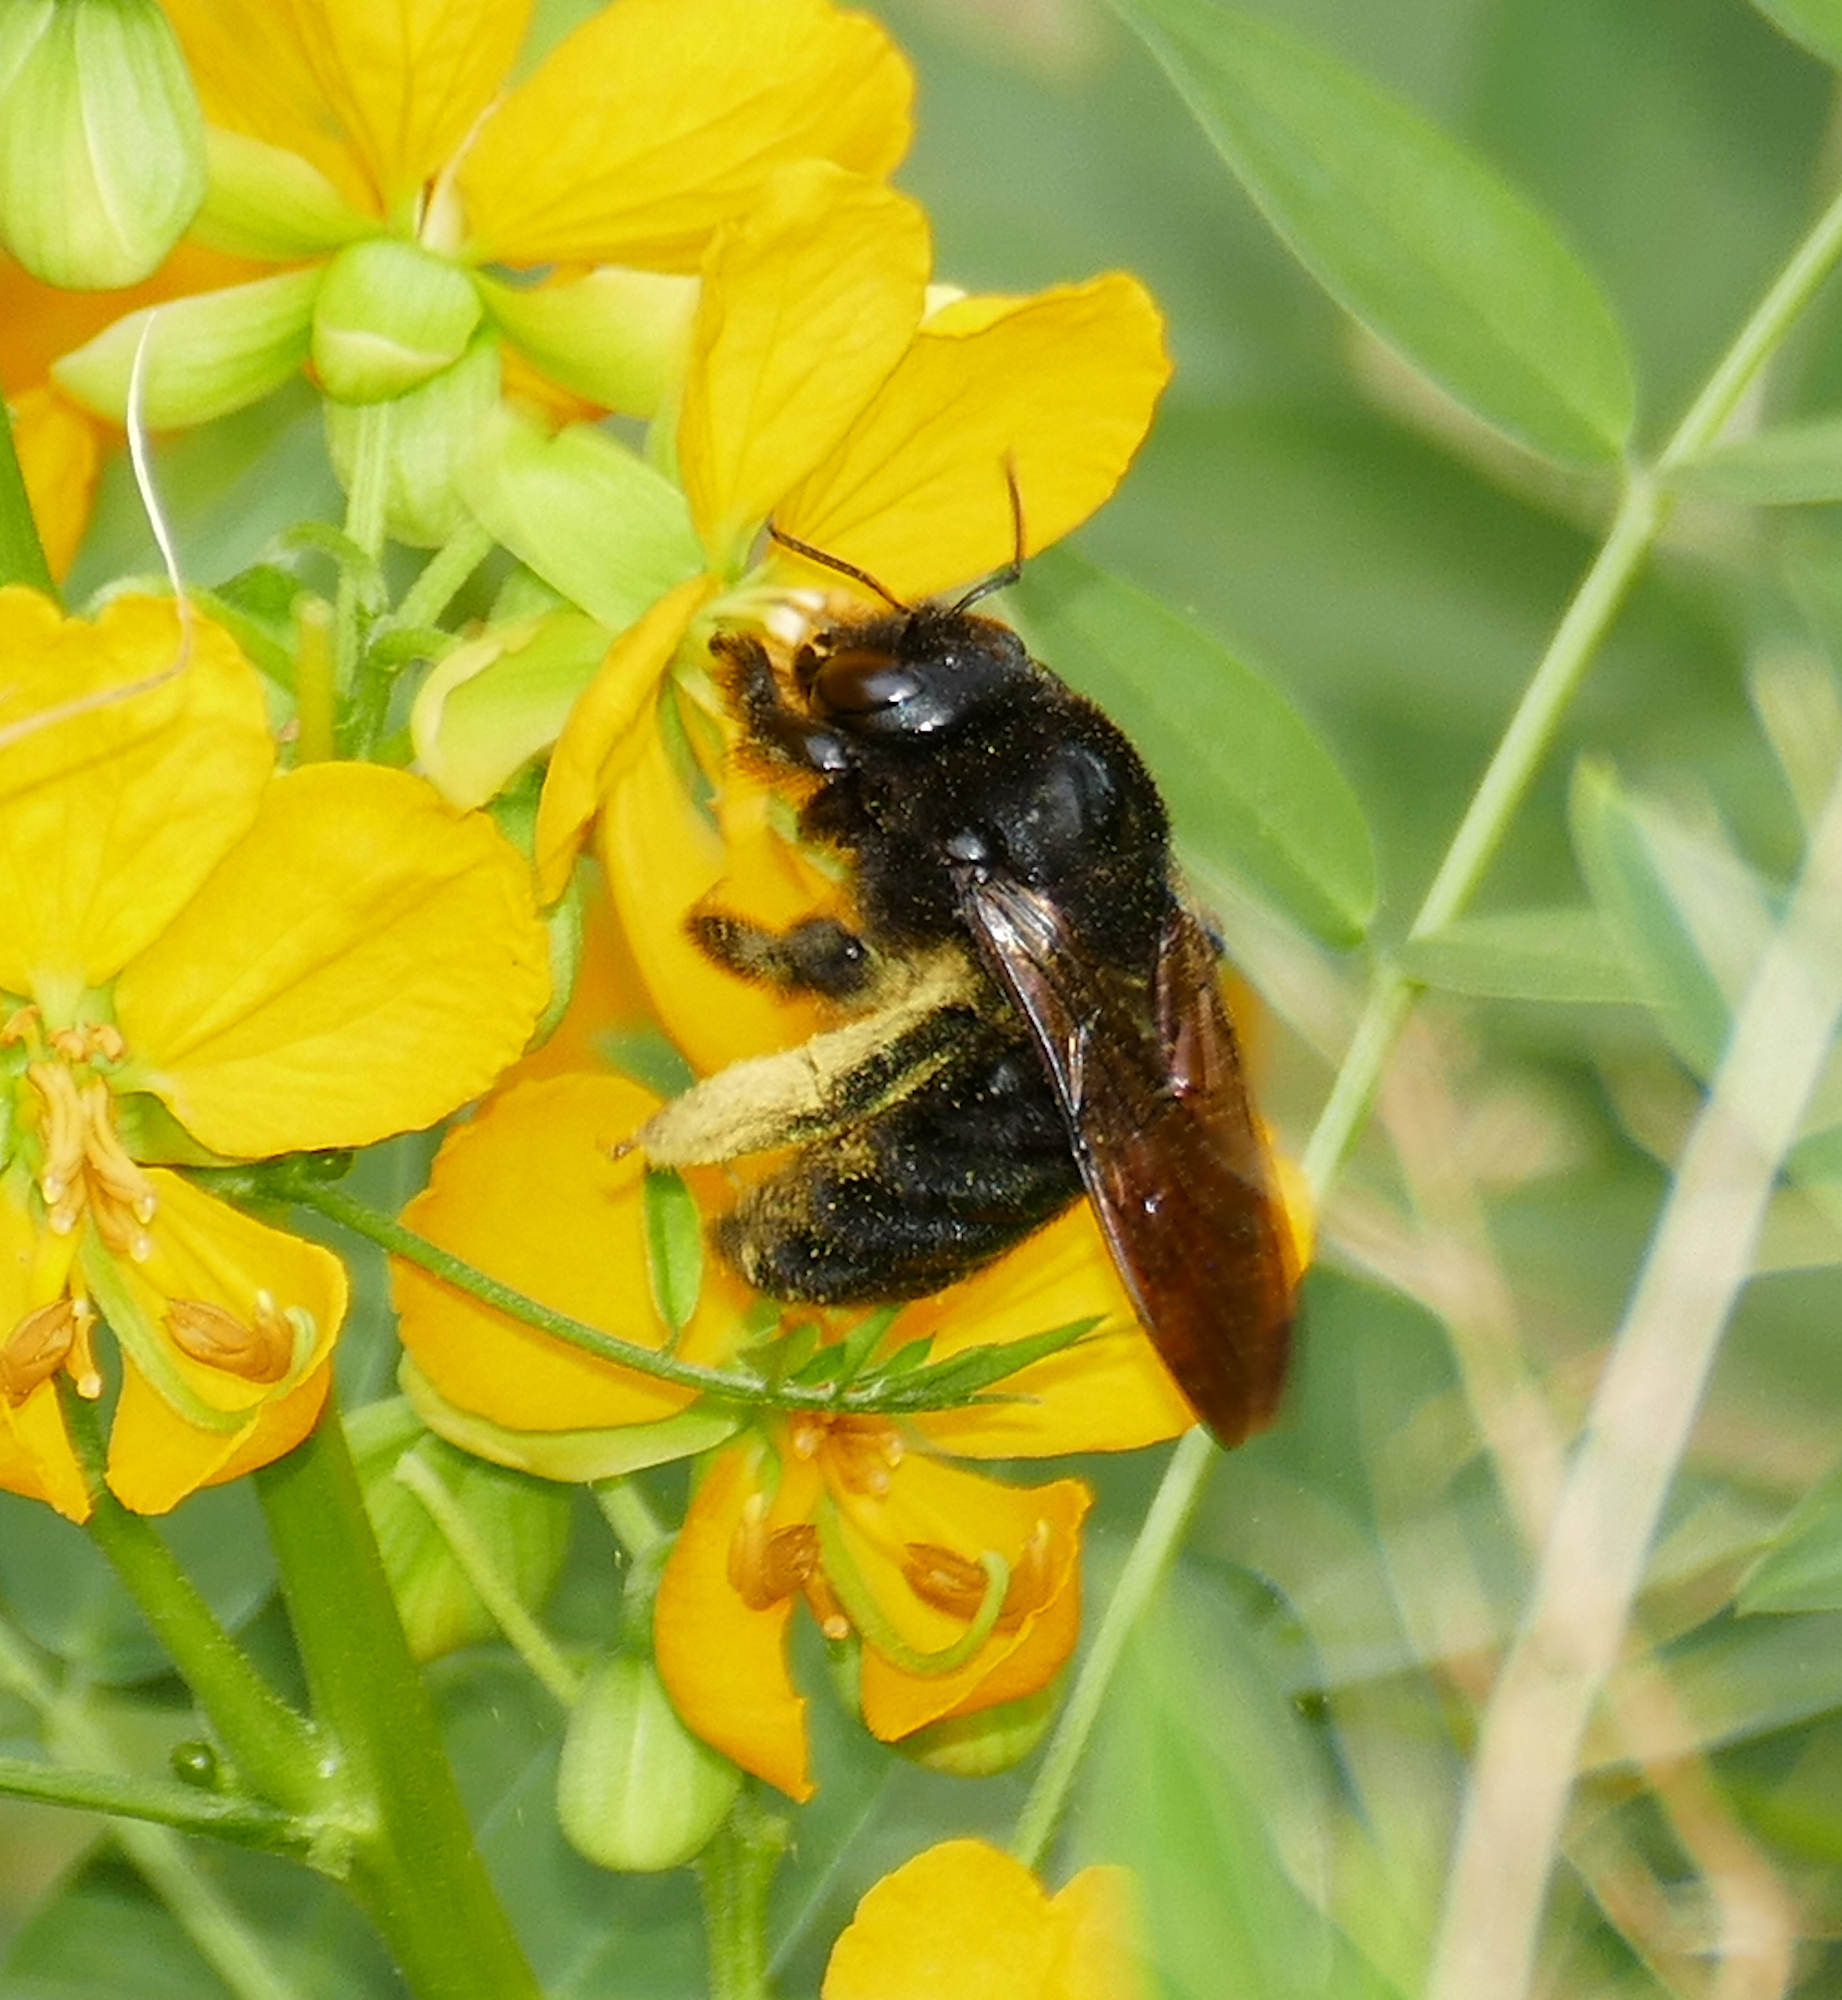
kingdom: Animalia
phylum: Arthropoda
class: Insecta
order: Hymenoptera
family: Apidae
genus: Xylocopa
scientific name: Xylocopa sonorina
